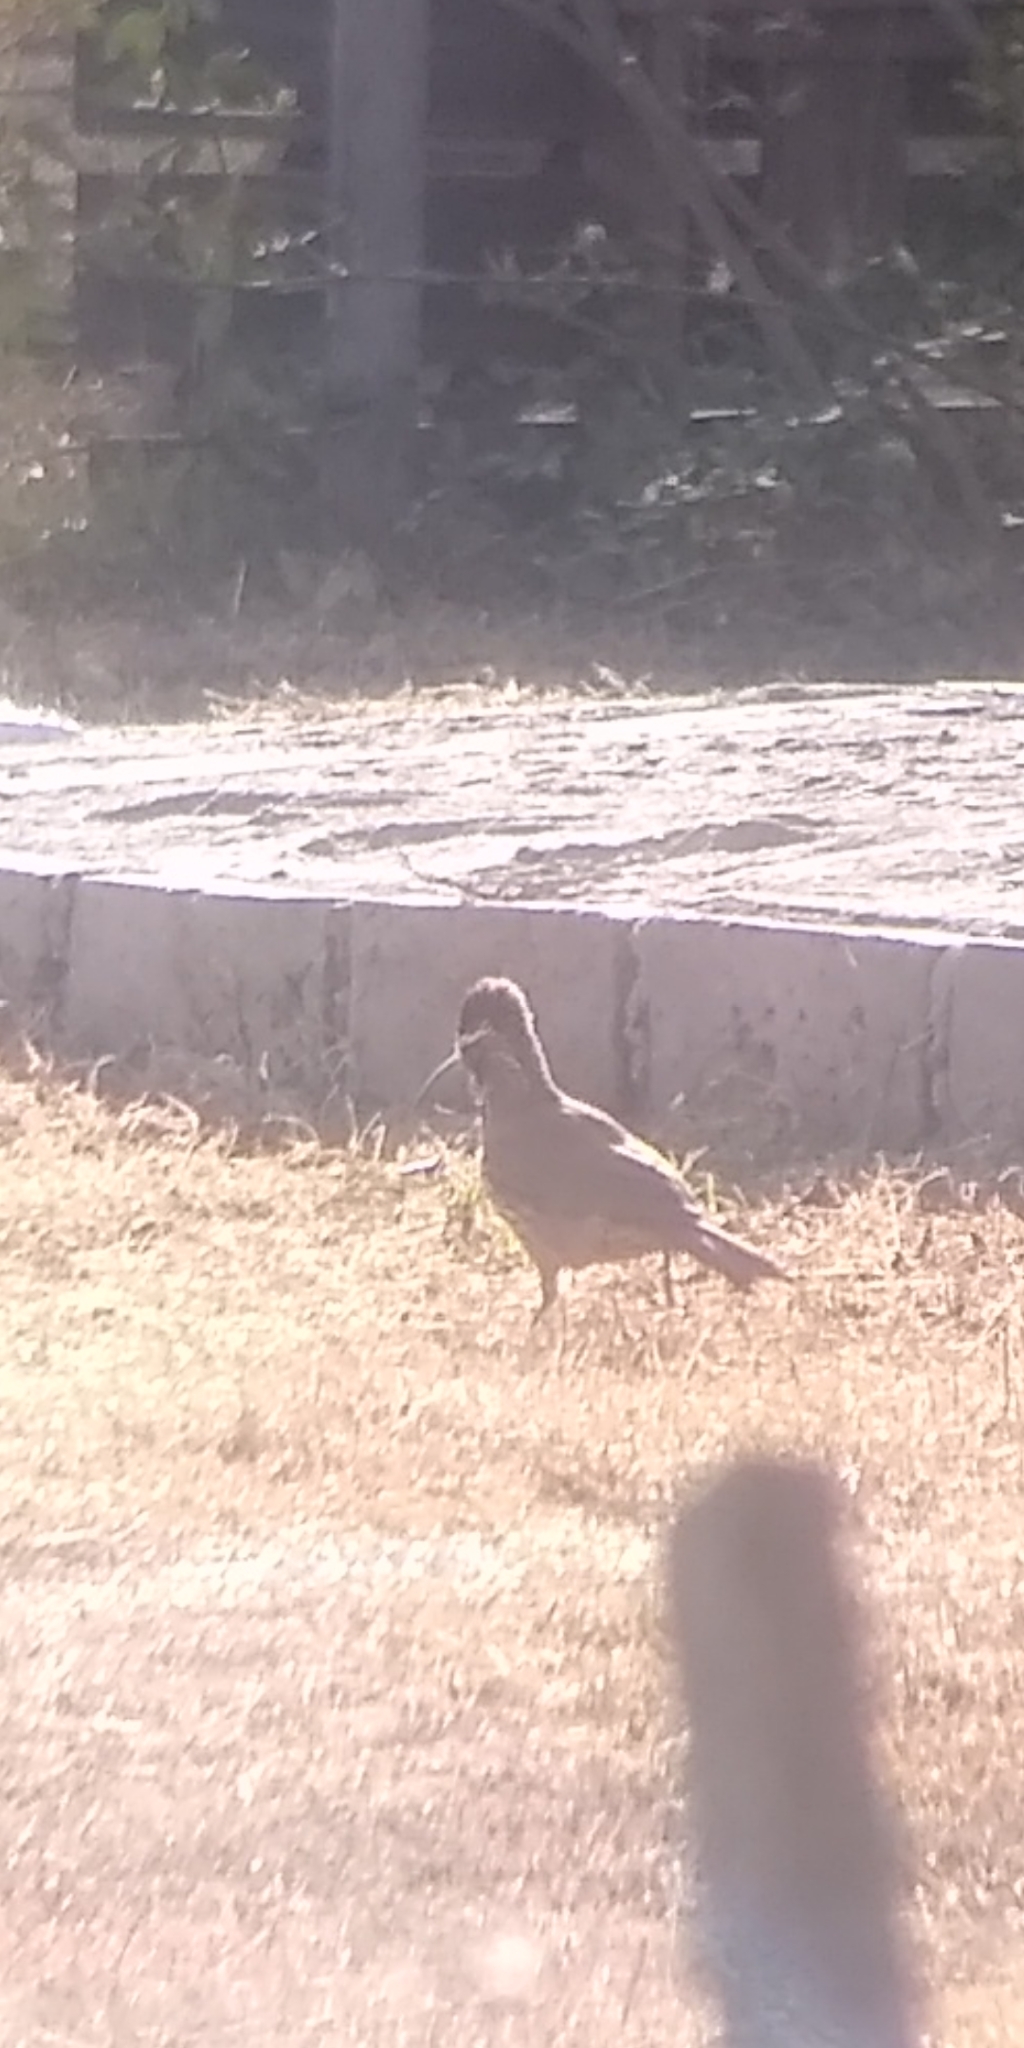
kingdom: Animalia
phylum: Chordata
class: Aves
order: Passeriformes
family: Furnariidae
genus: Drymornis
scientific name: Drymornis bridgesii
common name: Scimitar-billed woodcreeper
